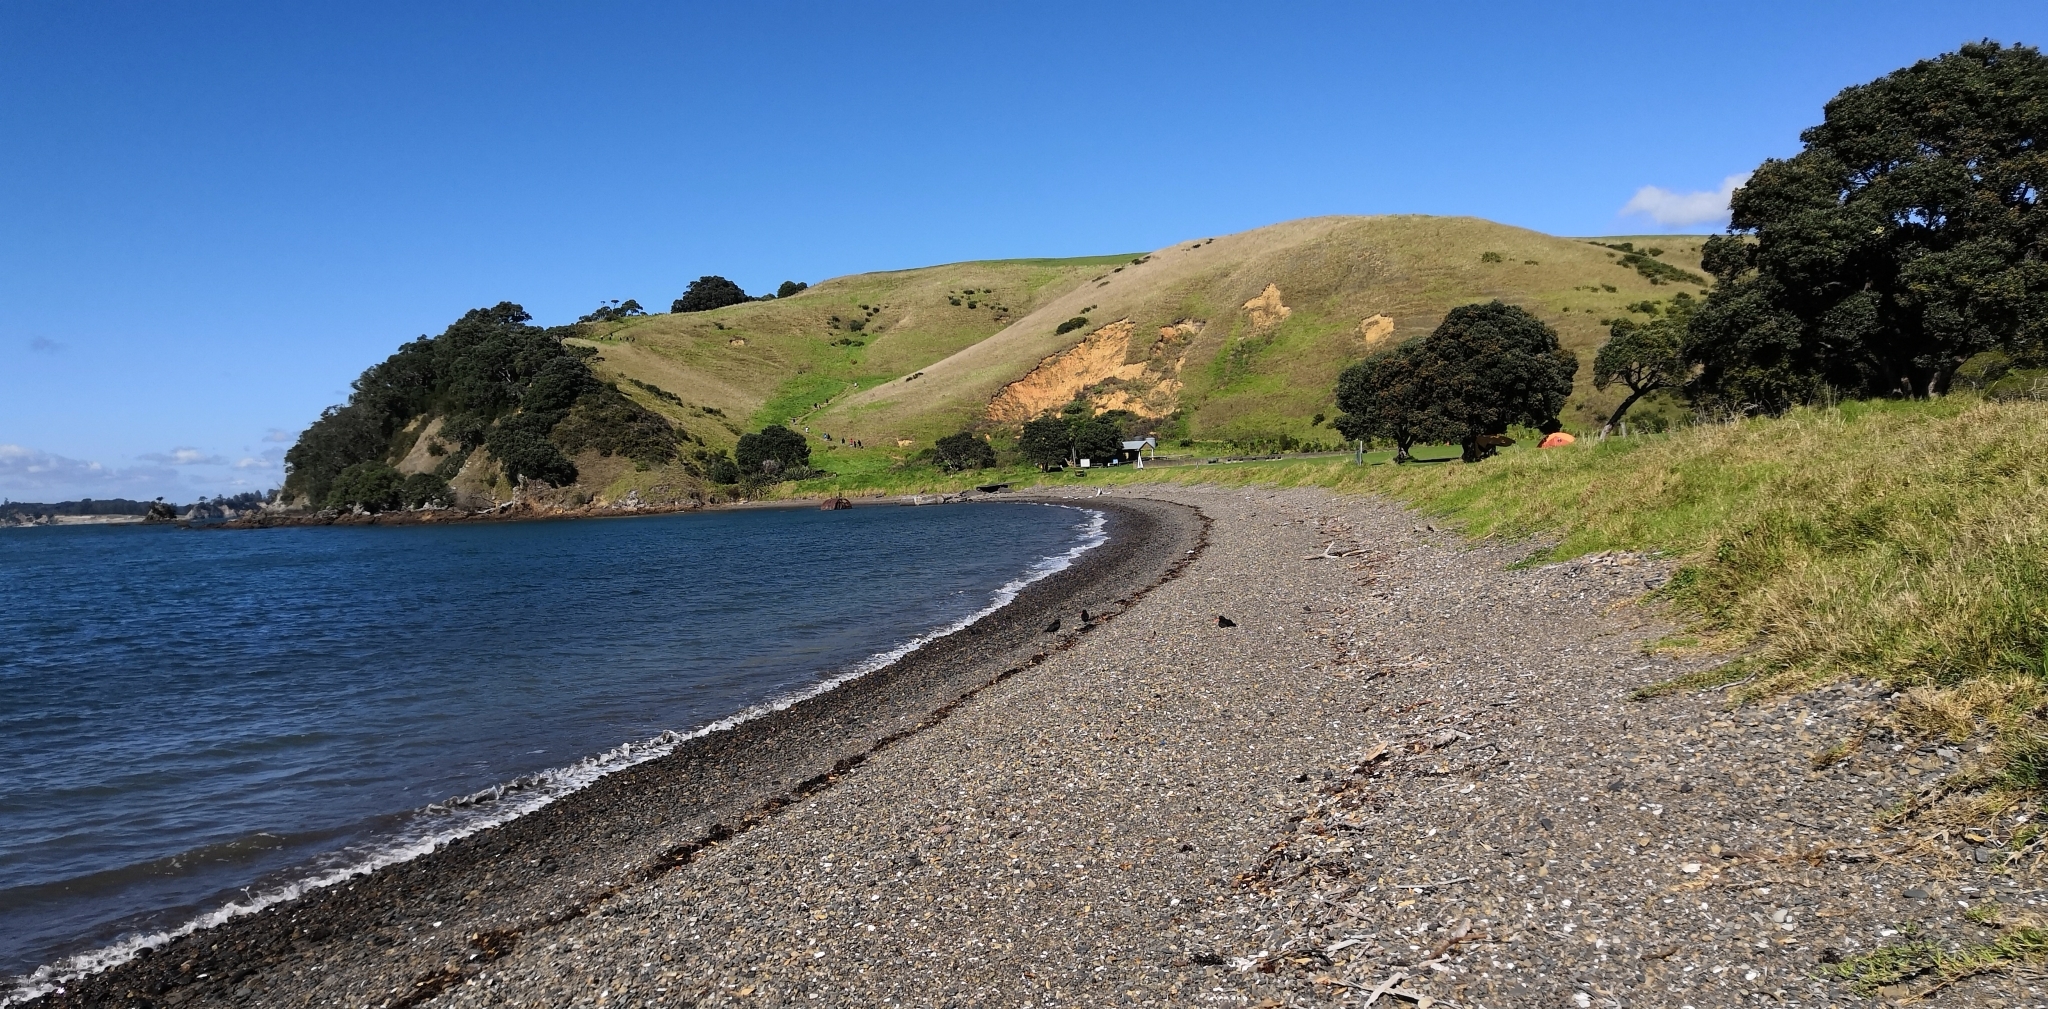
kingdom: Animalia
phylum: Chordata
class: Aves
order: Charadriiformes
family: Haematopodidae
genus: Haematopus
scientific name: Haematopus unicolor
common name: Variable oystercatcher
